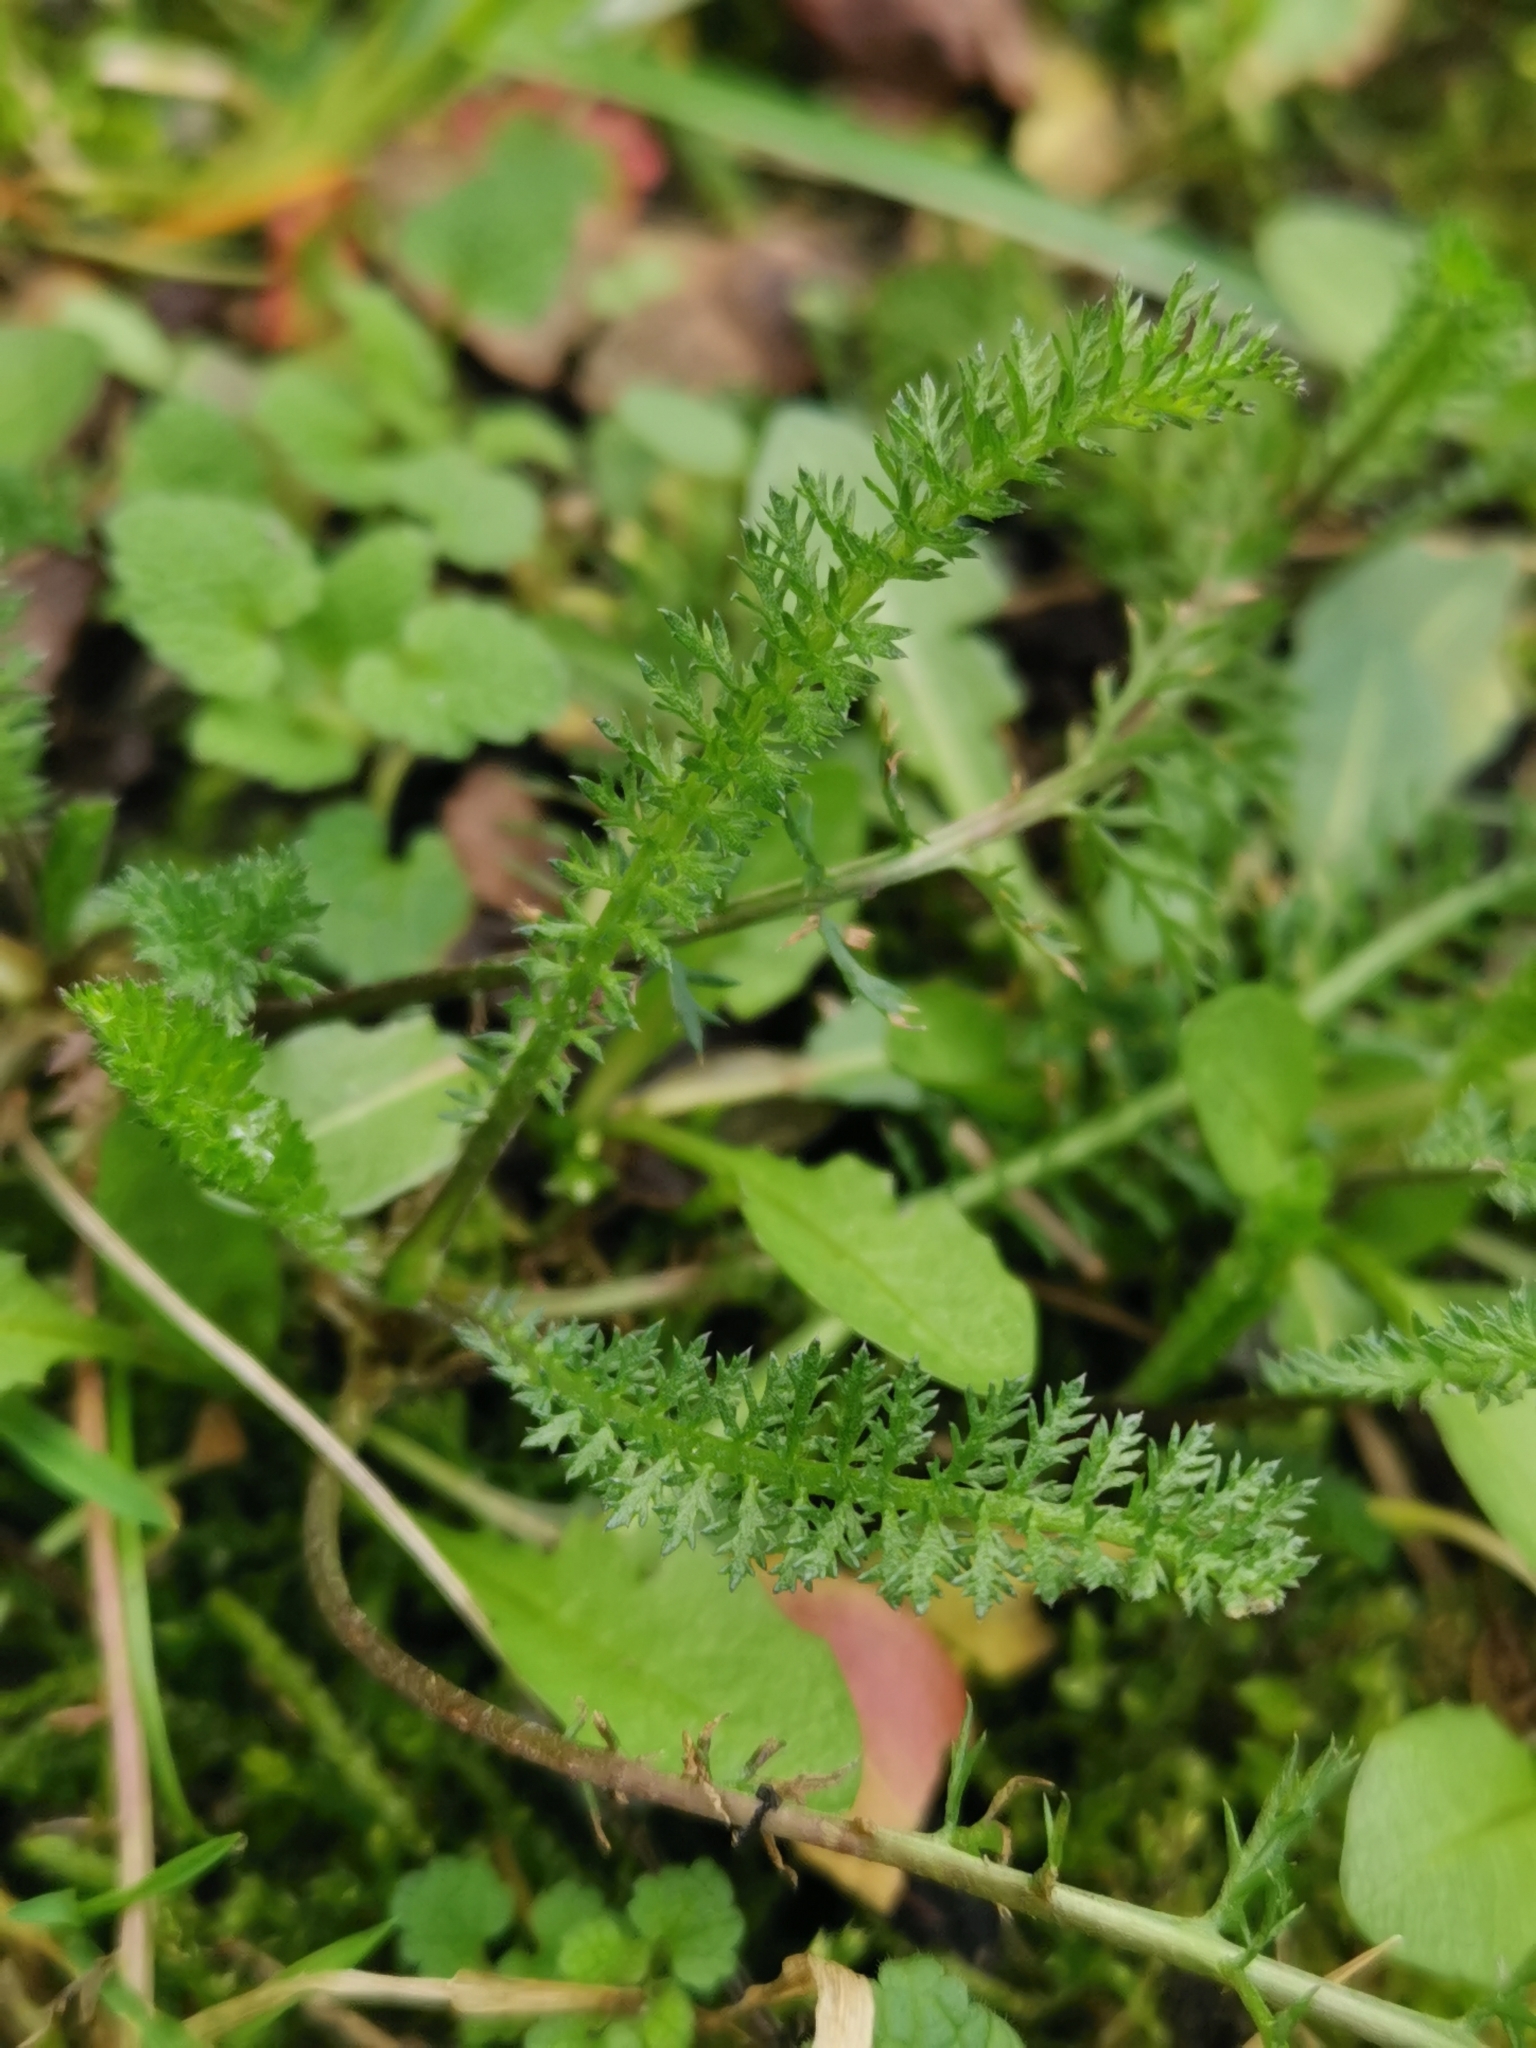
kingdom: Plantae
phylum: Tracheophyta
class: Magnoliopsida
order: Asterales
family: Asteraceae
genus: Achillea
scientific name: Achillea millefolium
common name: Yarrow
